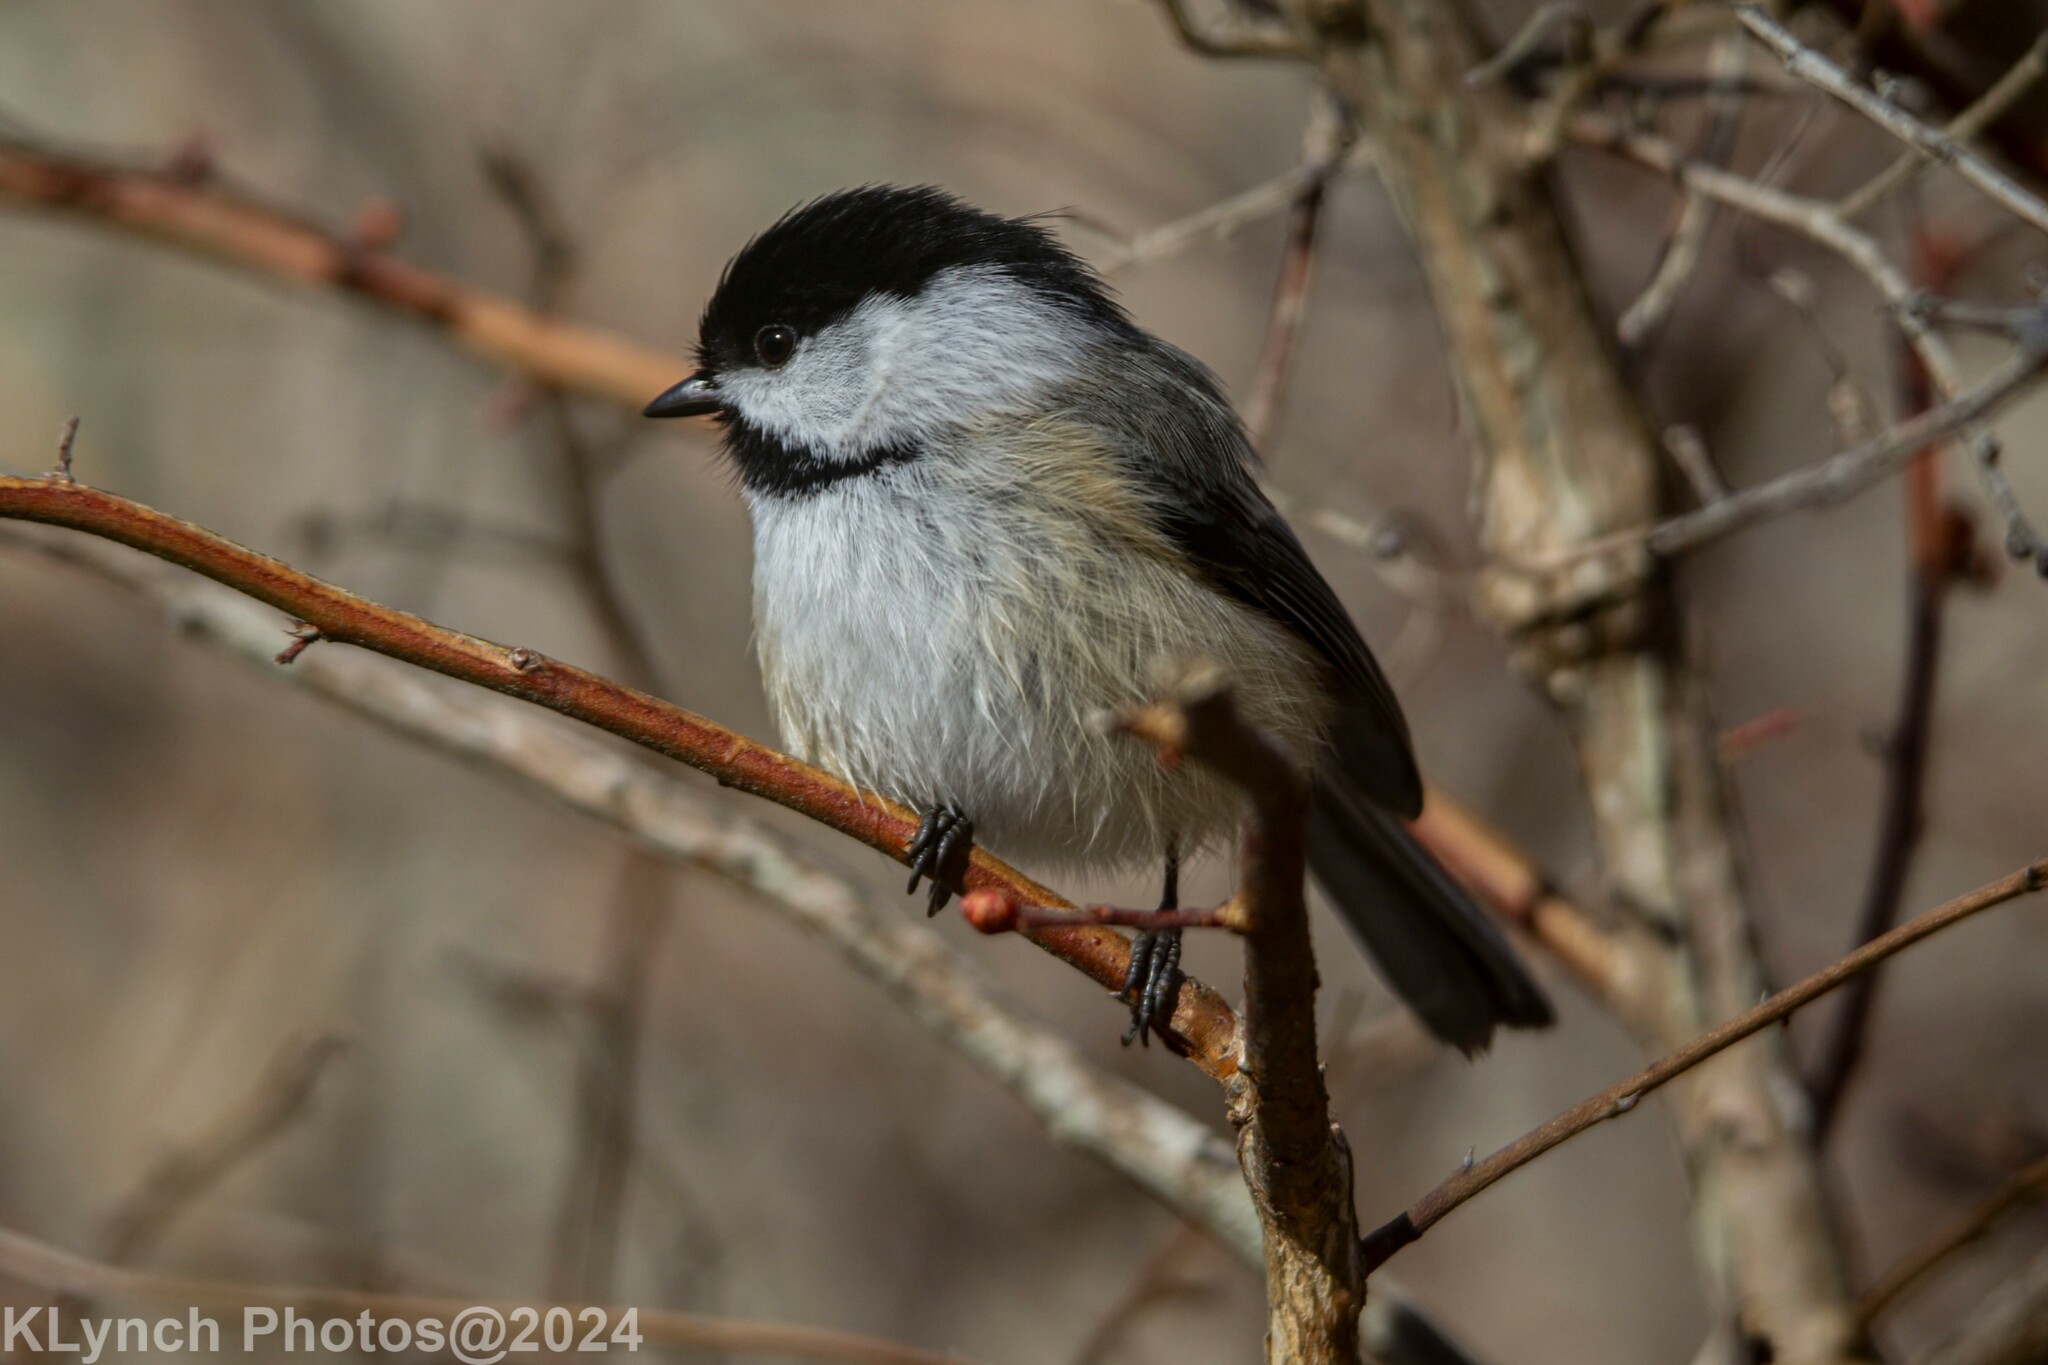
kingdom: Animalia
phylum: Chordata
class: Aves
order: Passeriformes
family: Paridae
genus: Poecile
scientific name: Poecile atricapillus
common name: Black-capped chickadee
